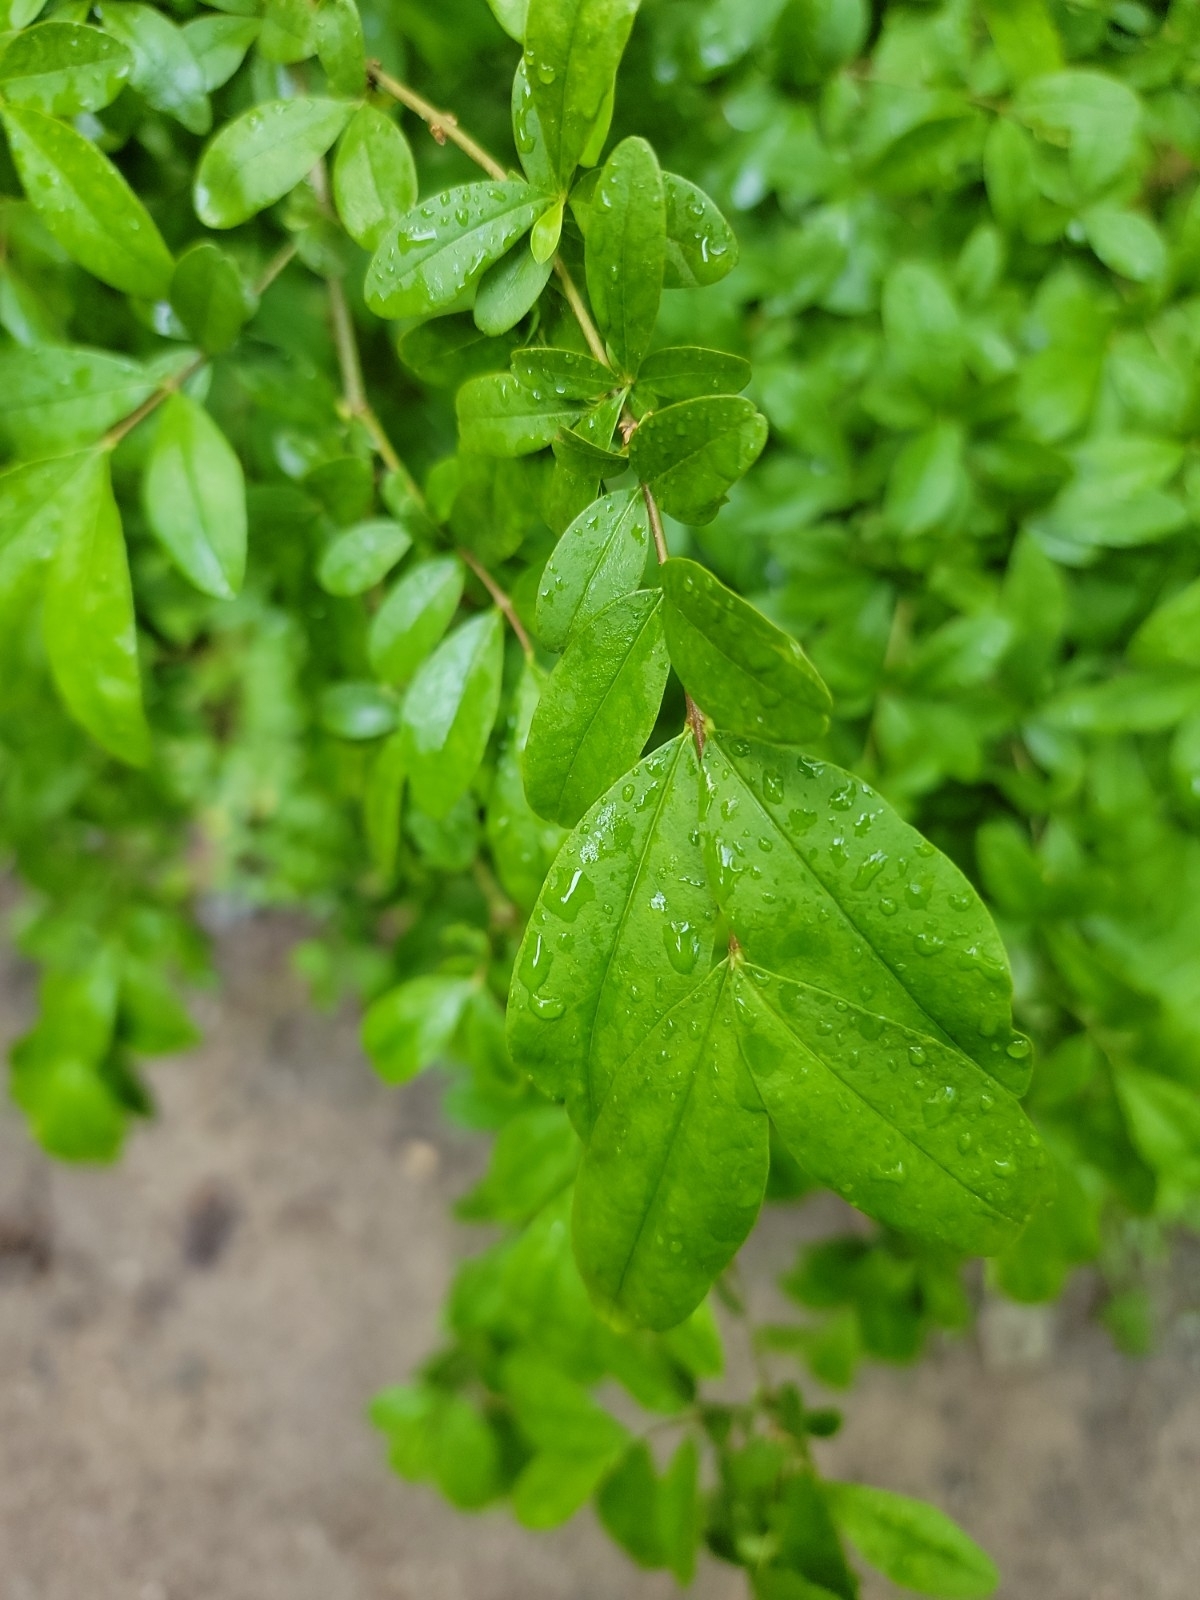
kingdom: Plantae
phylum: Tracheophyta
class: Magnoliopsida
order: Lamiales
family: Oleaceae
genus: Ligustrum
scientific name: Ligustrum obtusifolium
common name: Border privet
